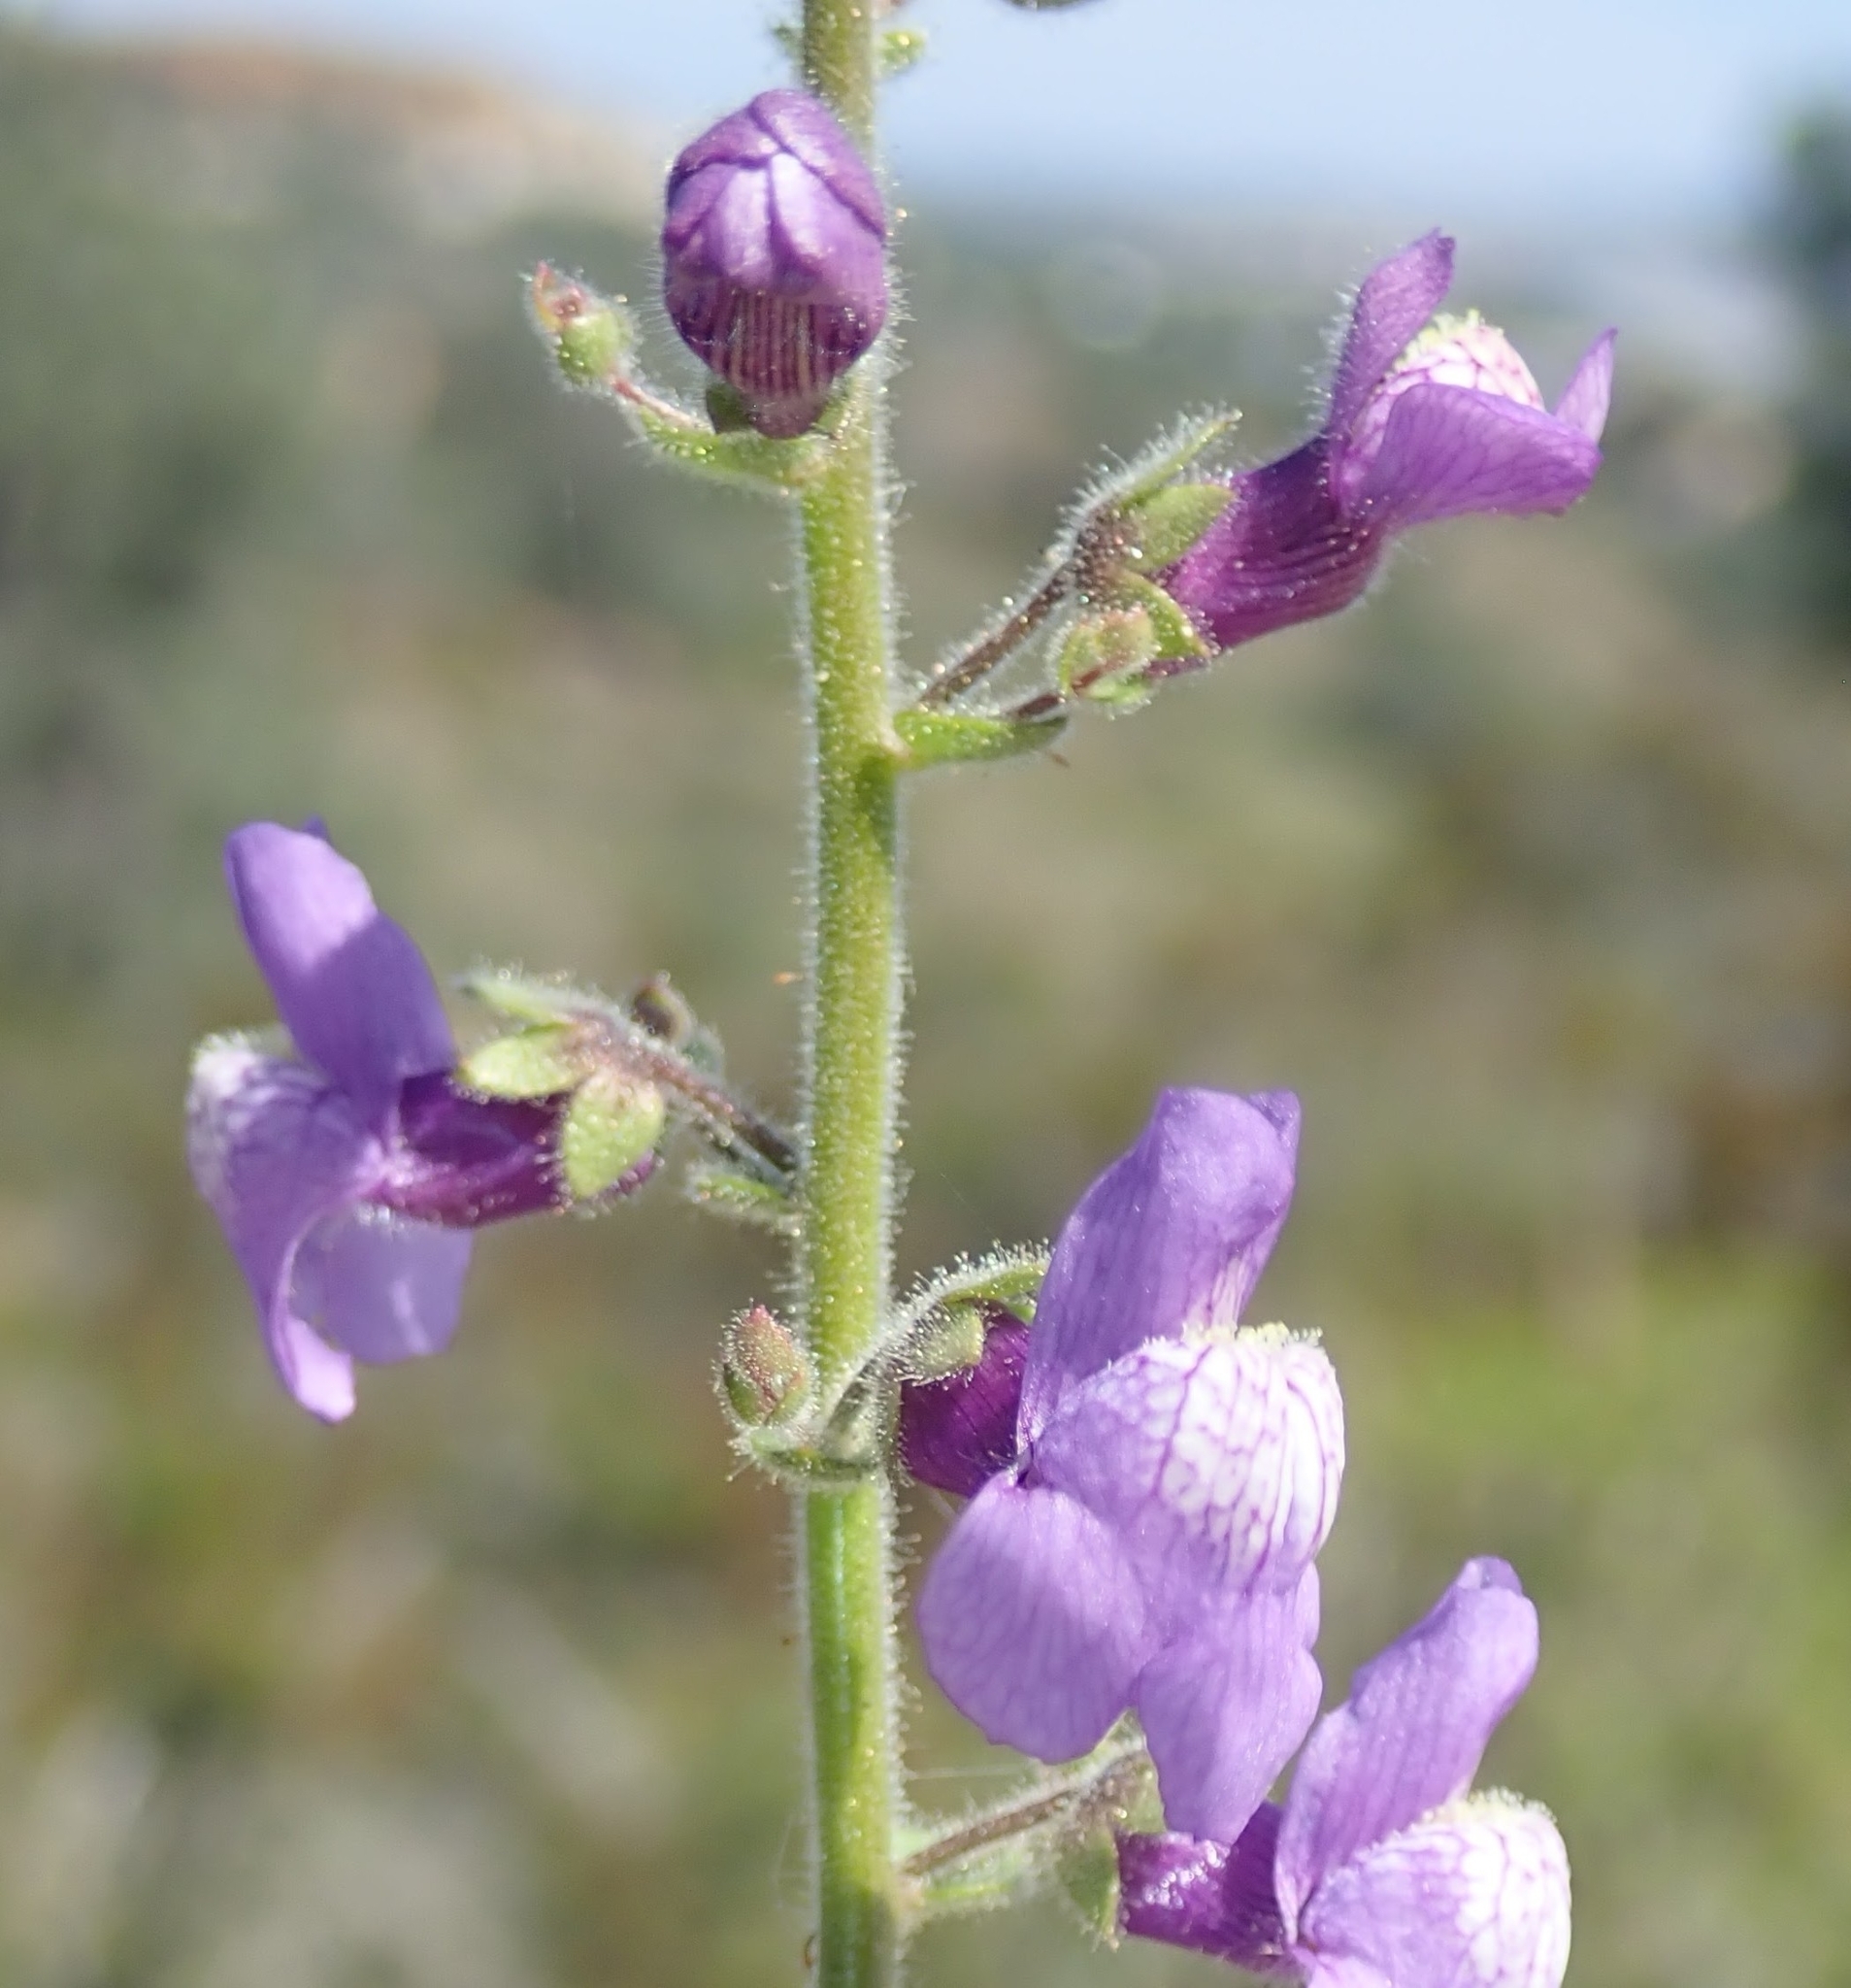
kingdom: Plantae
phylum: Tracheophyta
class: Magnoliopsida
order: Lamiales
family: Plantaginaceae
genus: Sairocarpus
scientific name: Sairocarpus nuttallianus
